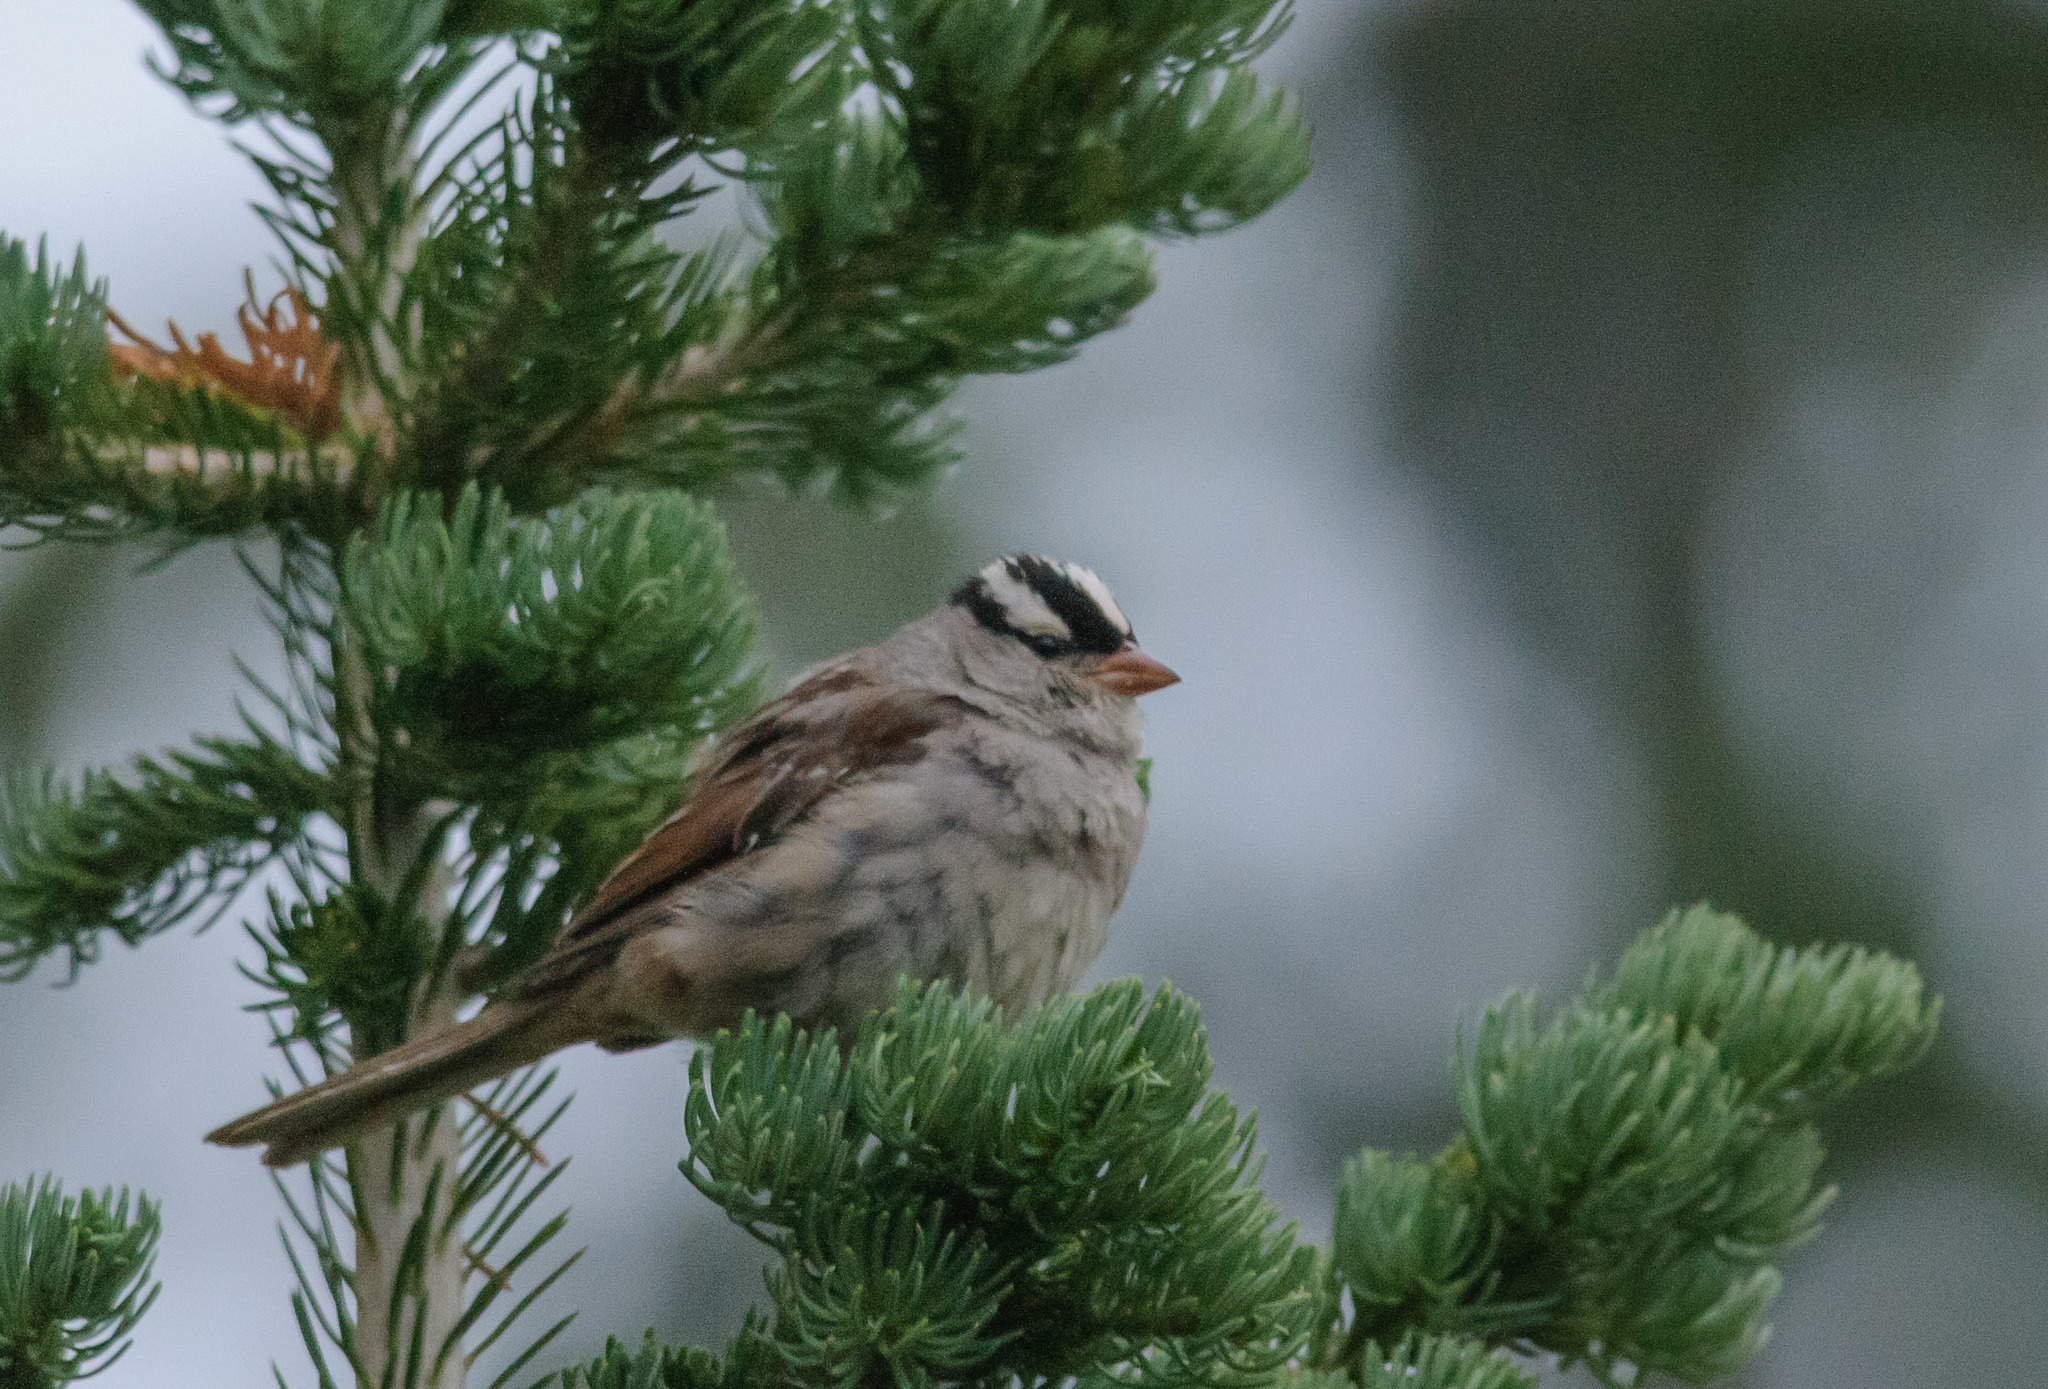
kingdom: Animalia
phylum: Chordata
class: Aves
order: Passeriformes
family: Passerellidae
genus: Zonotrichia
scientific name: Zonotrichia leucophrys
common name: White-crowned sparrow
